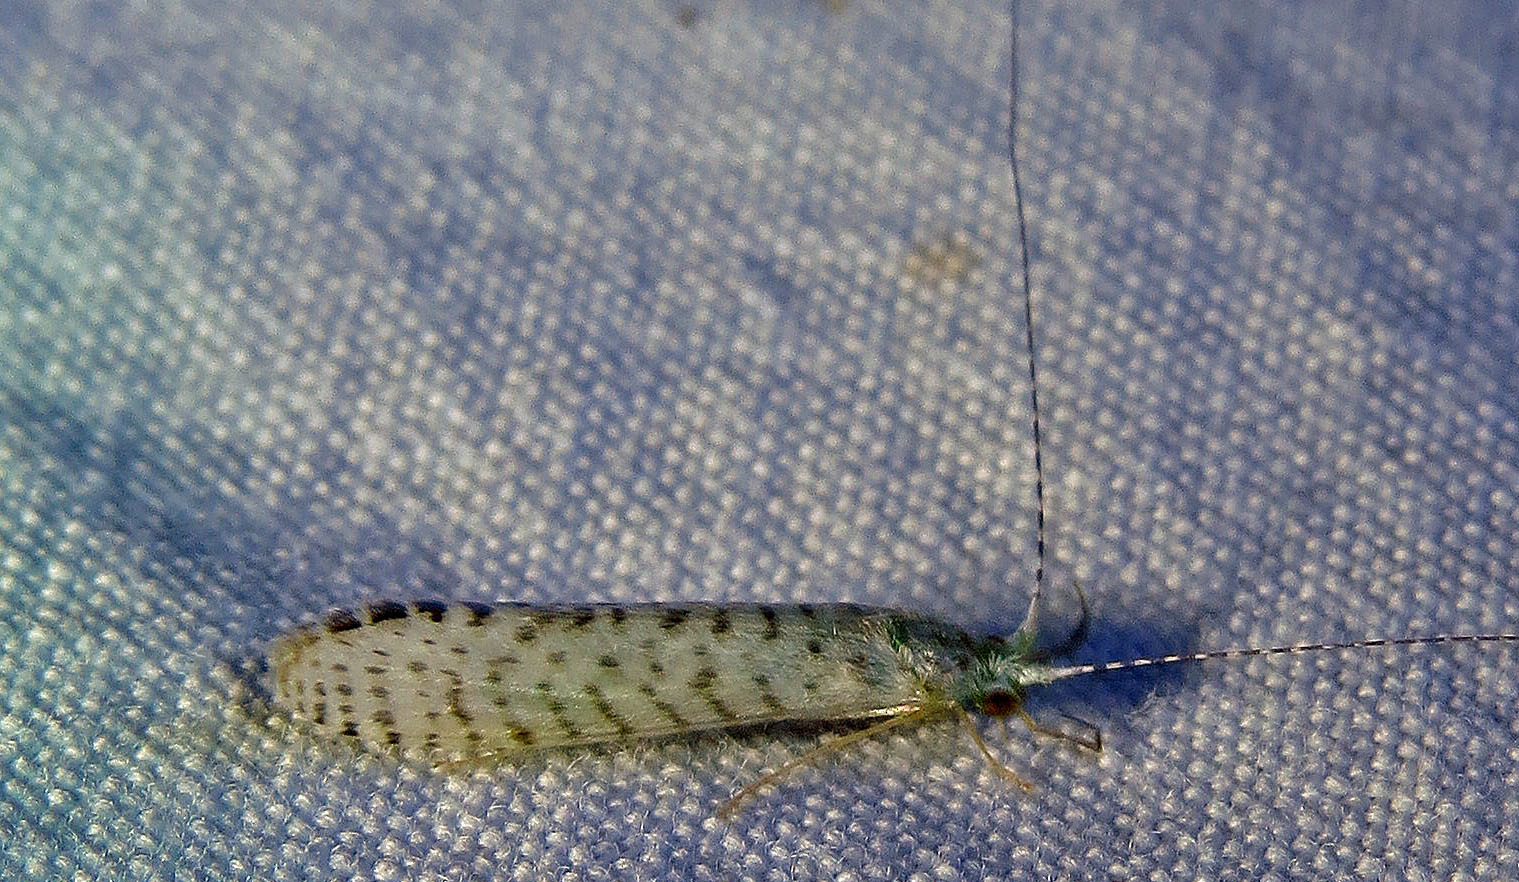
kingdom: Animalia
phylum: Arthropoda
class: Insecta
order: Trichoptera
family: Leptoceridae
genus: Nectopsyche
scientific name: Nectopsyche candida
